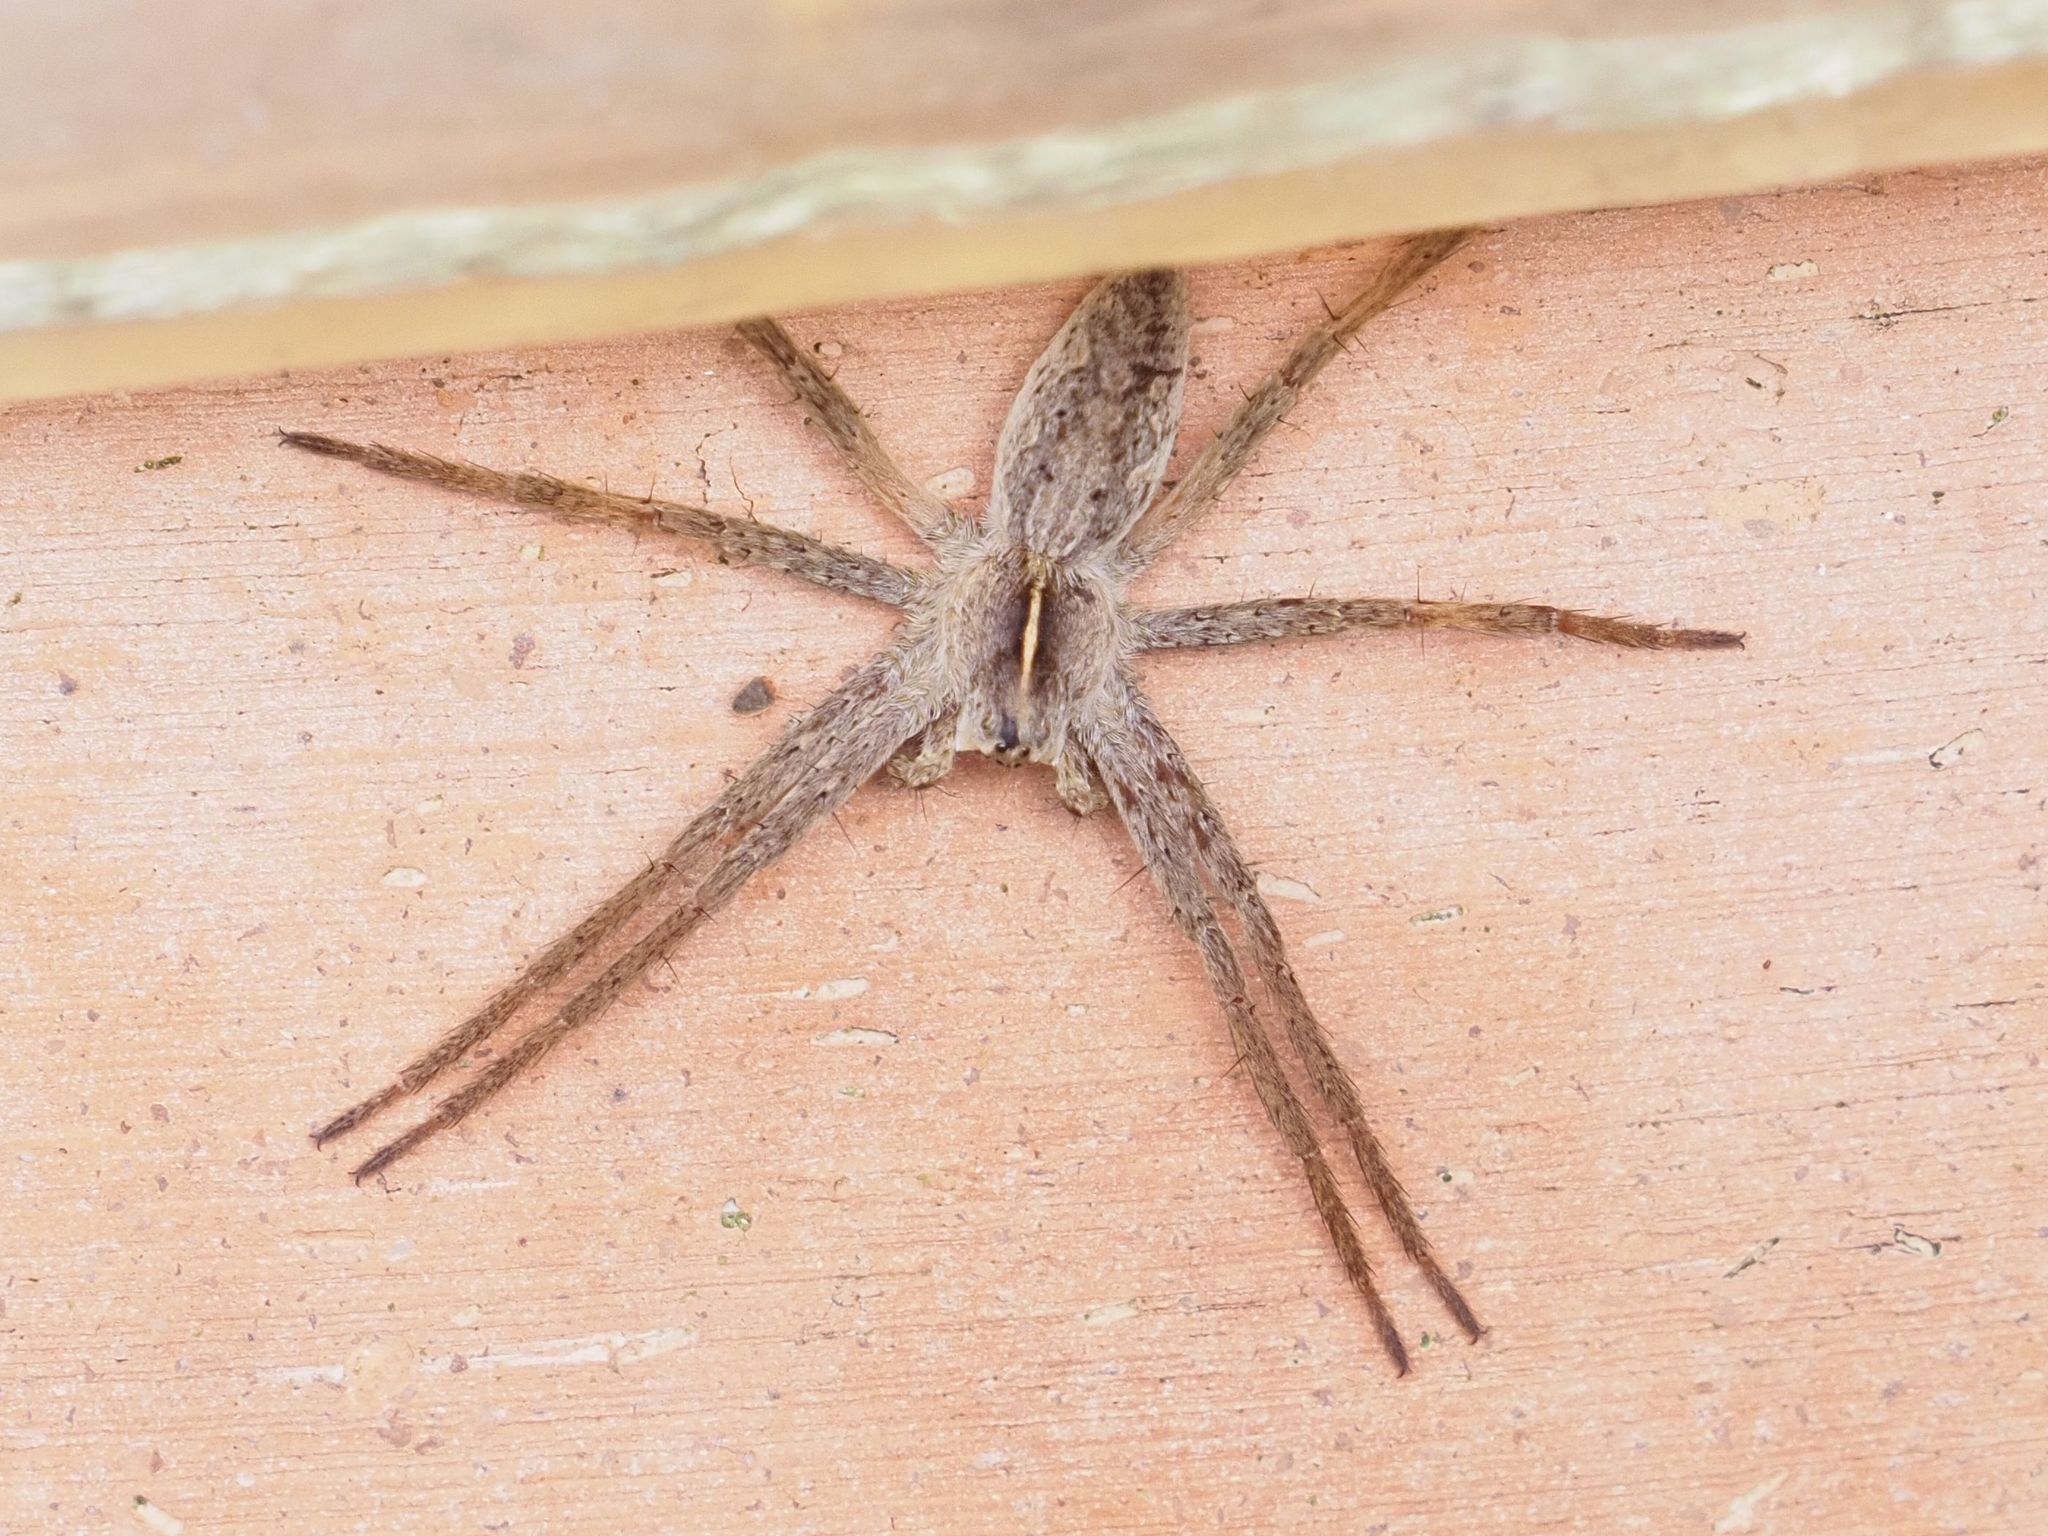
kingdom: Animalia
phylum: Arthropoda
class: Arachnida
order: Araneae
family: Pisauridae
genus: Pisaura
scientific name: Pisaura mirabilis
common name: Tent spider
